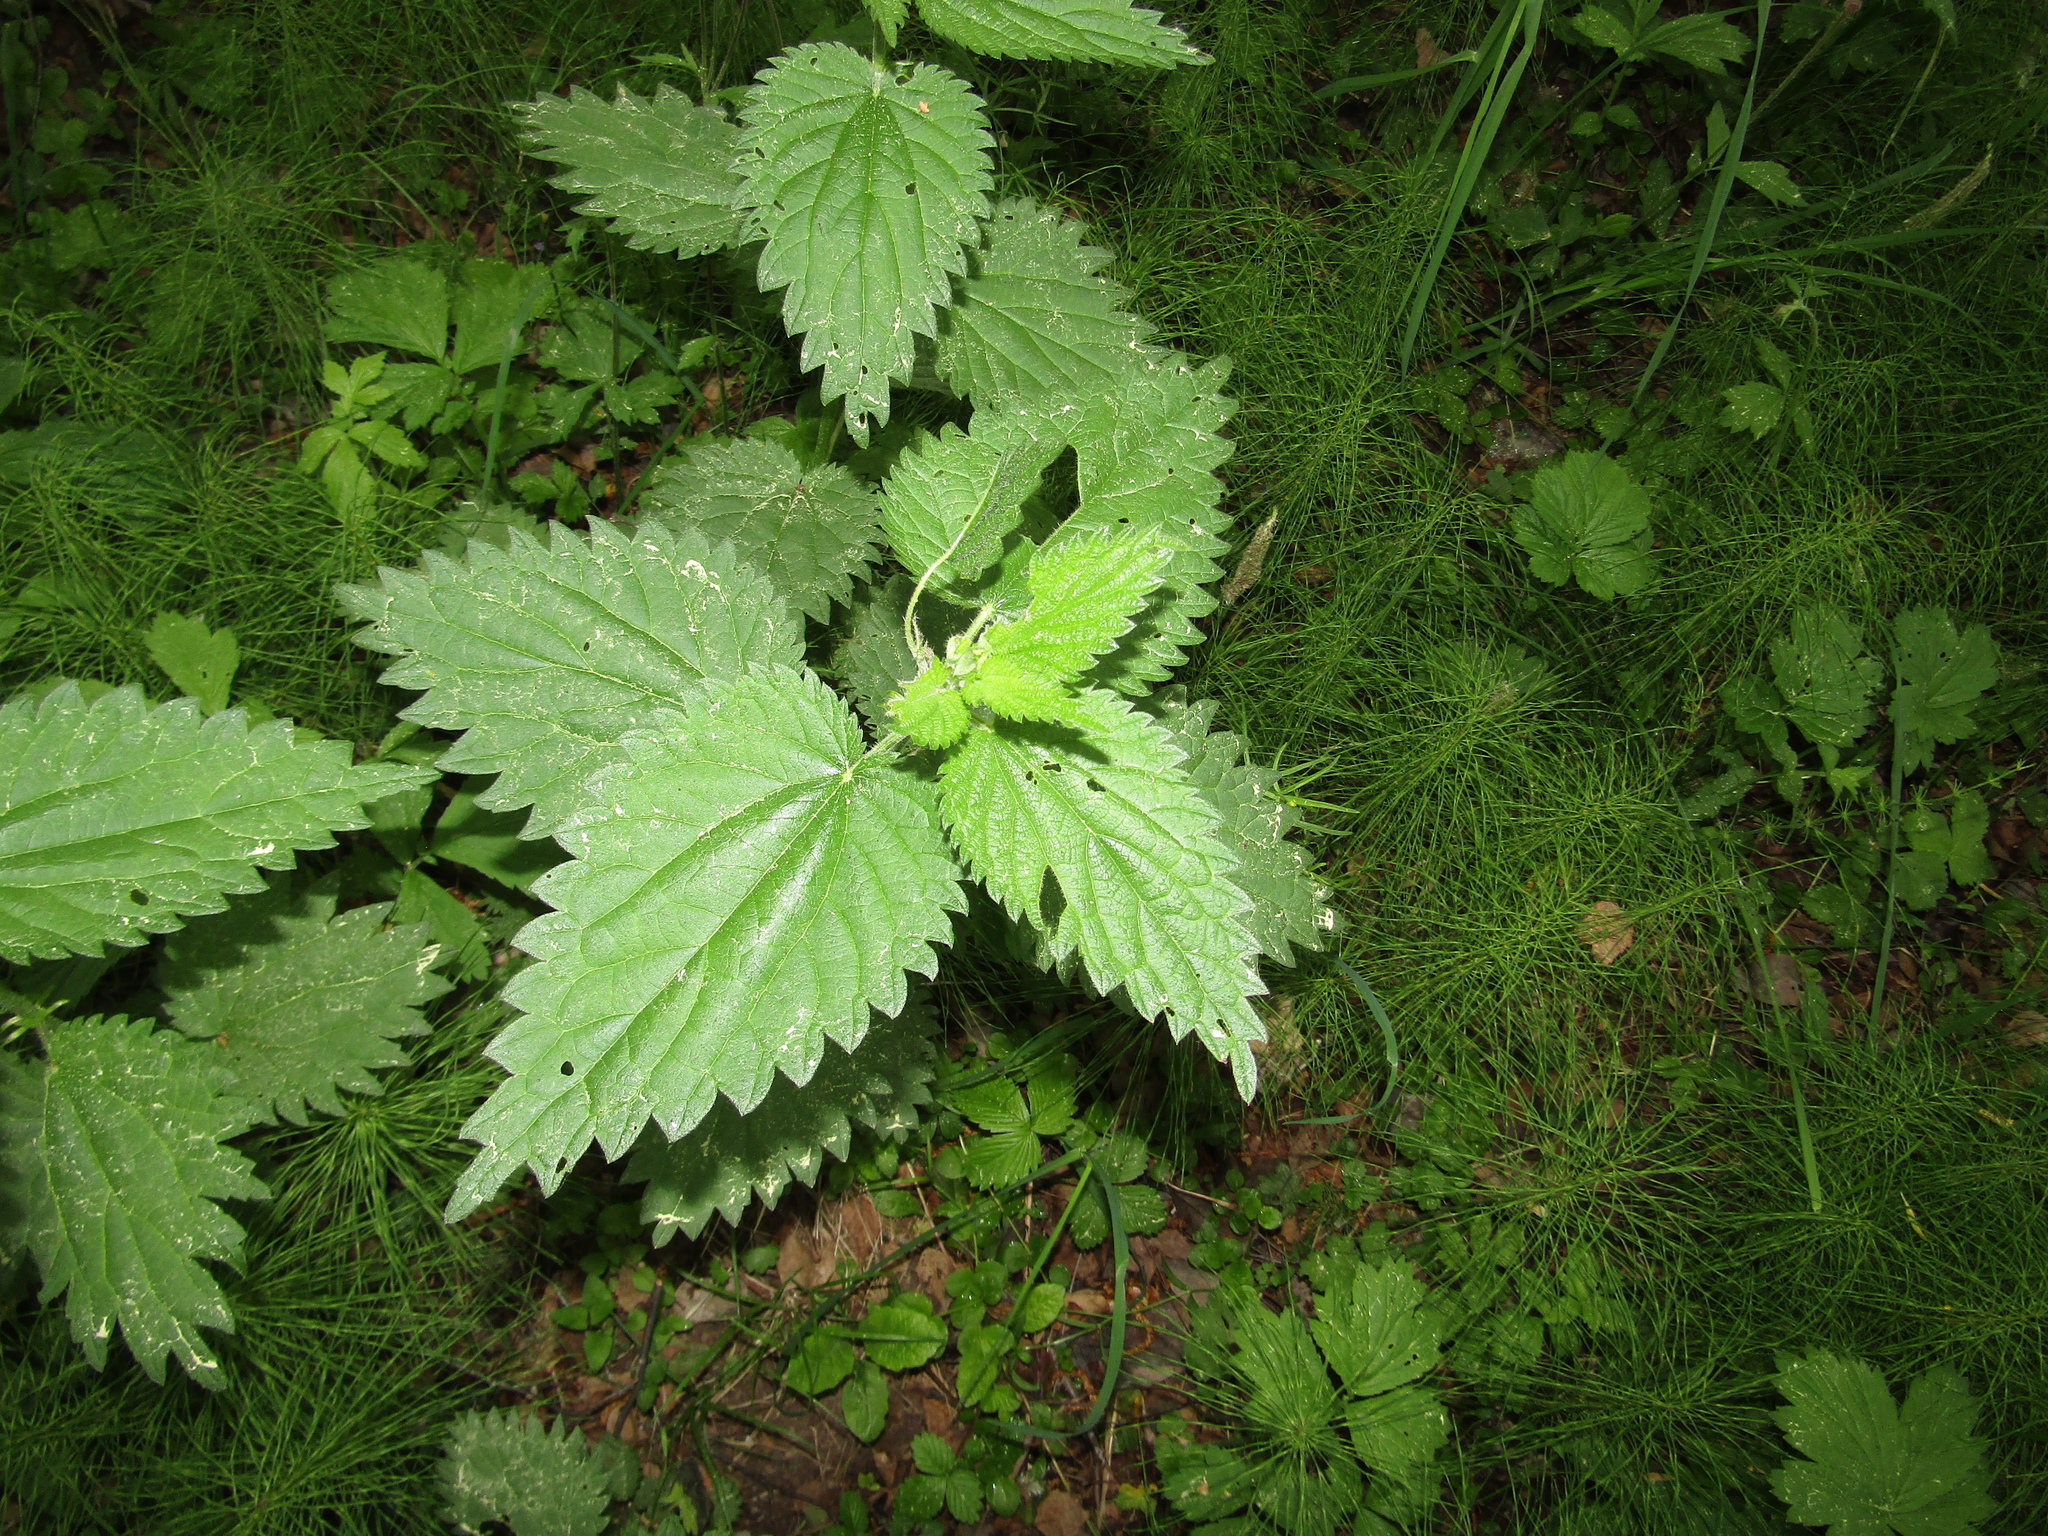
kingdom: Plantae
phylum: Tracheophyta
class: Magnoliopsida
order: Rosales
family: Urticaceae
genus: Urtica
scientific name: Urtica dioica
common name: Common nettle
